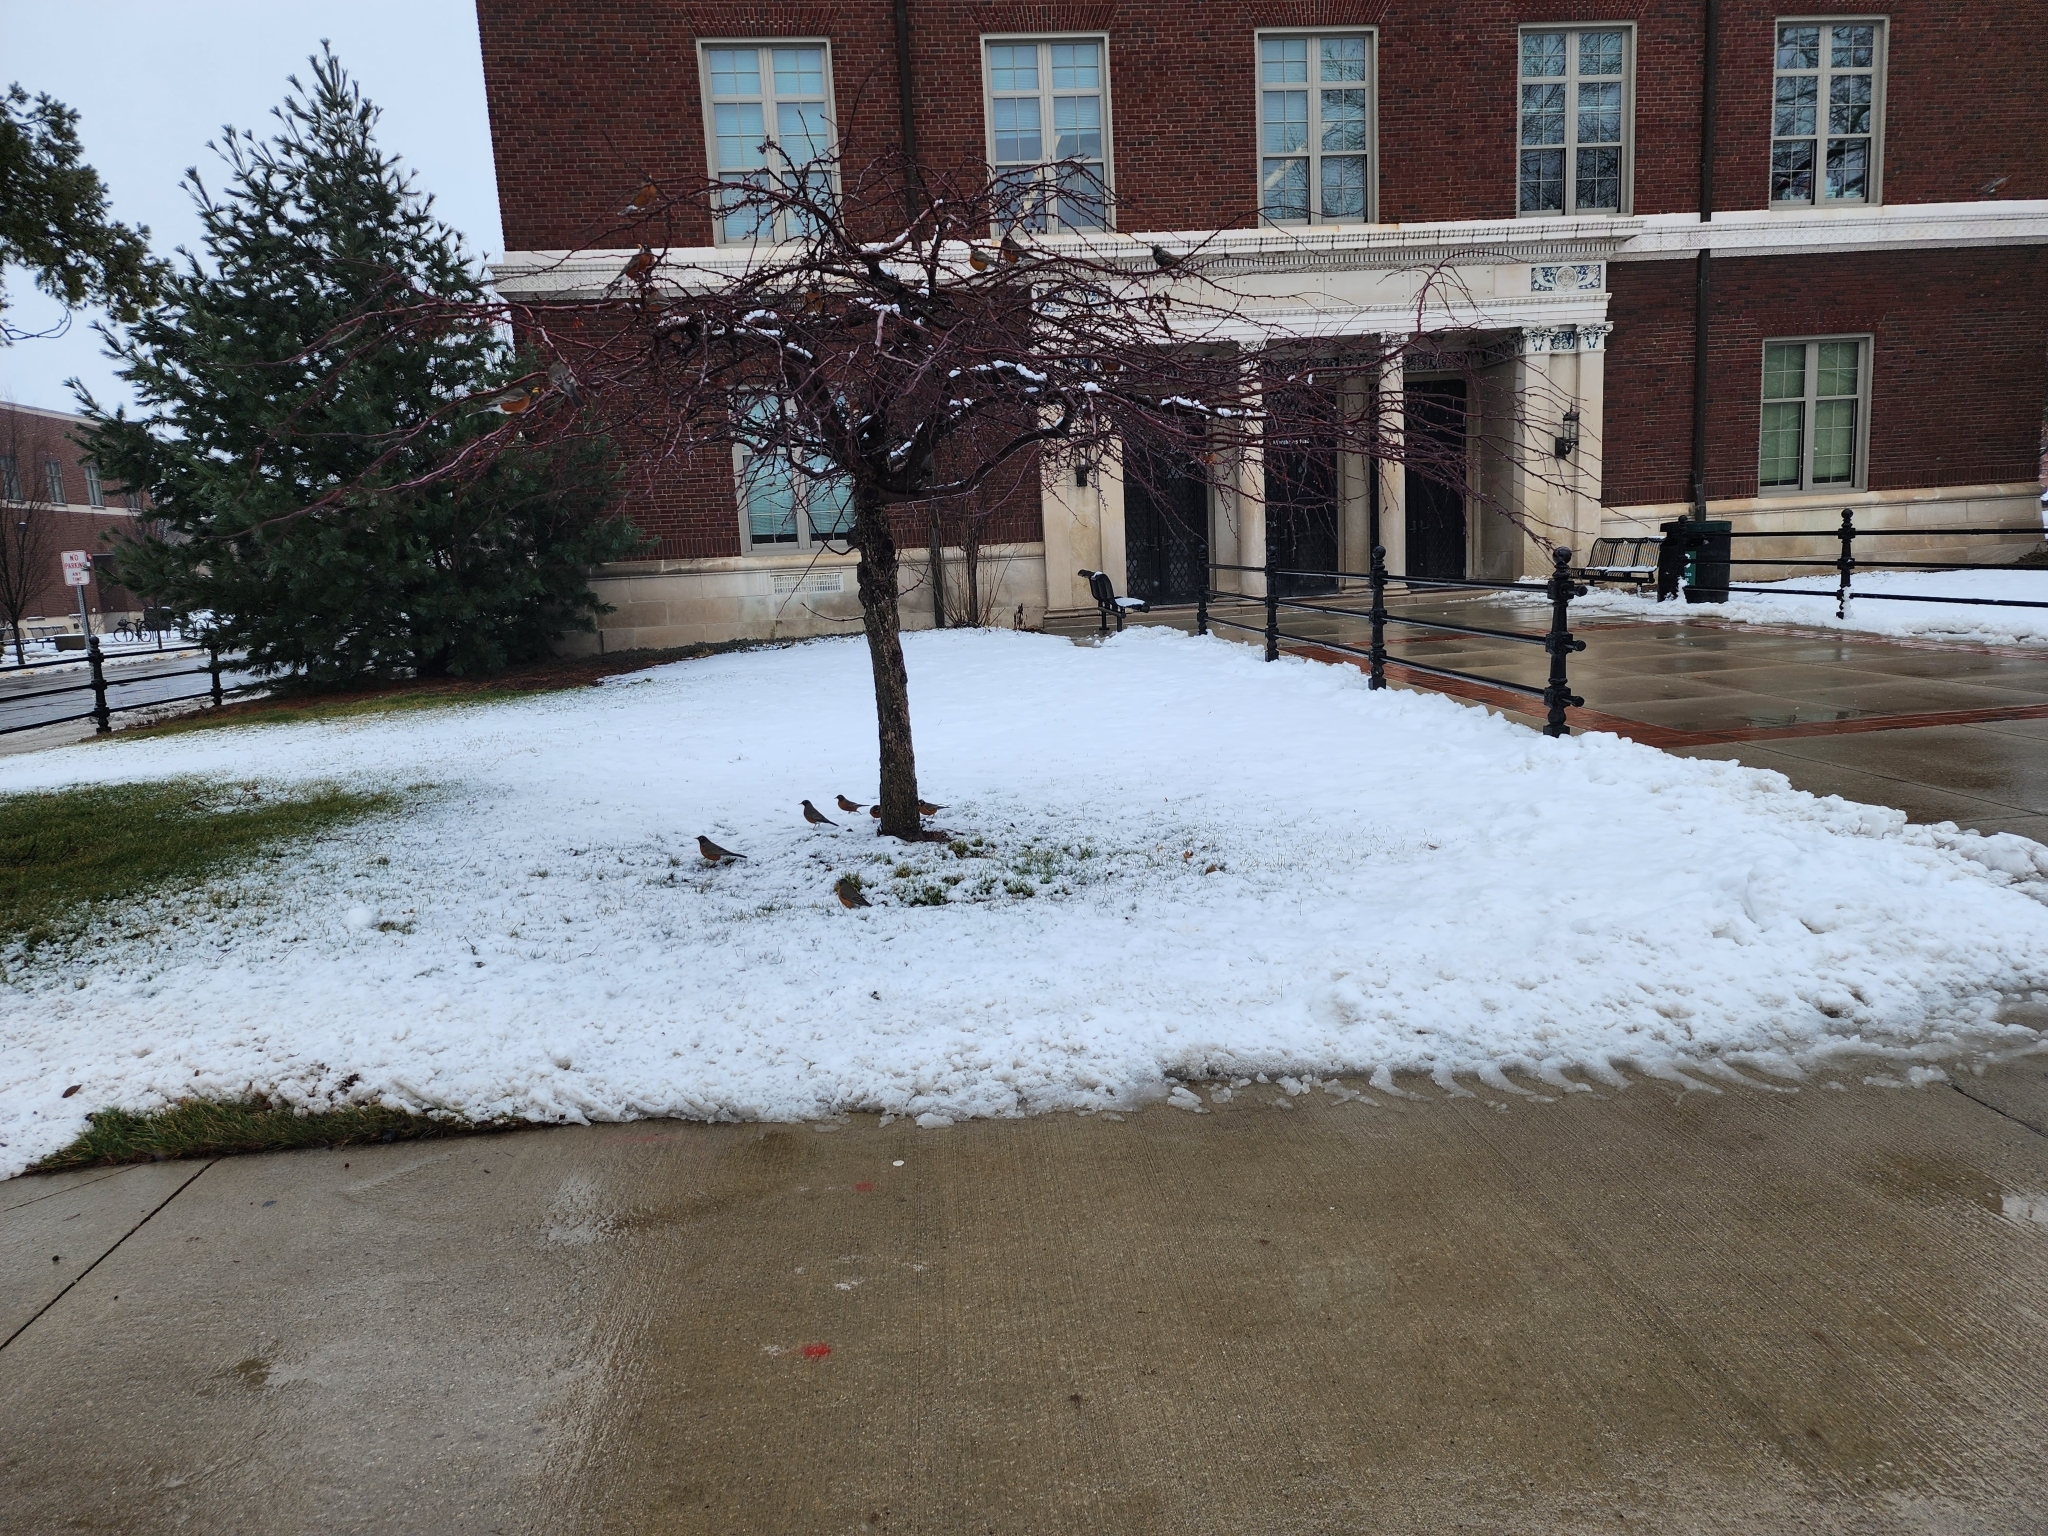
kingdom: Animalia
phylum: Chordata
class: Aves
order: Passeriformes
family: Turdidae
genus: Turdus
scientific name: Turdus migratorius
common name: American robin
